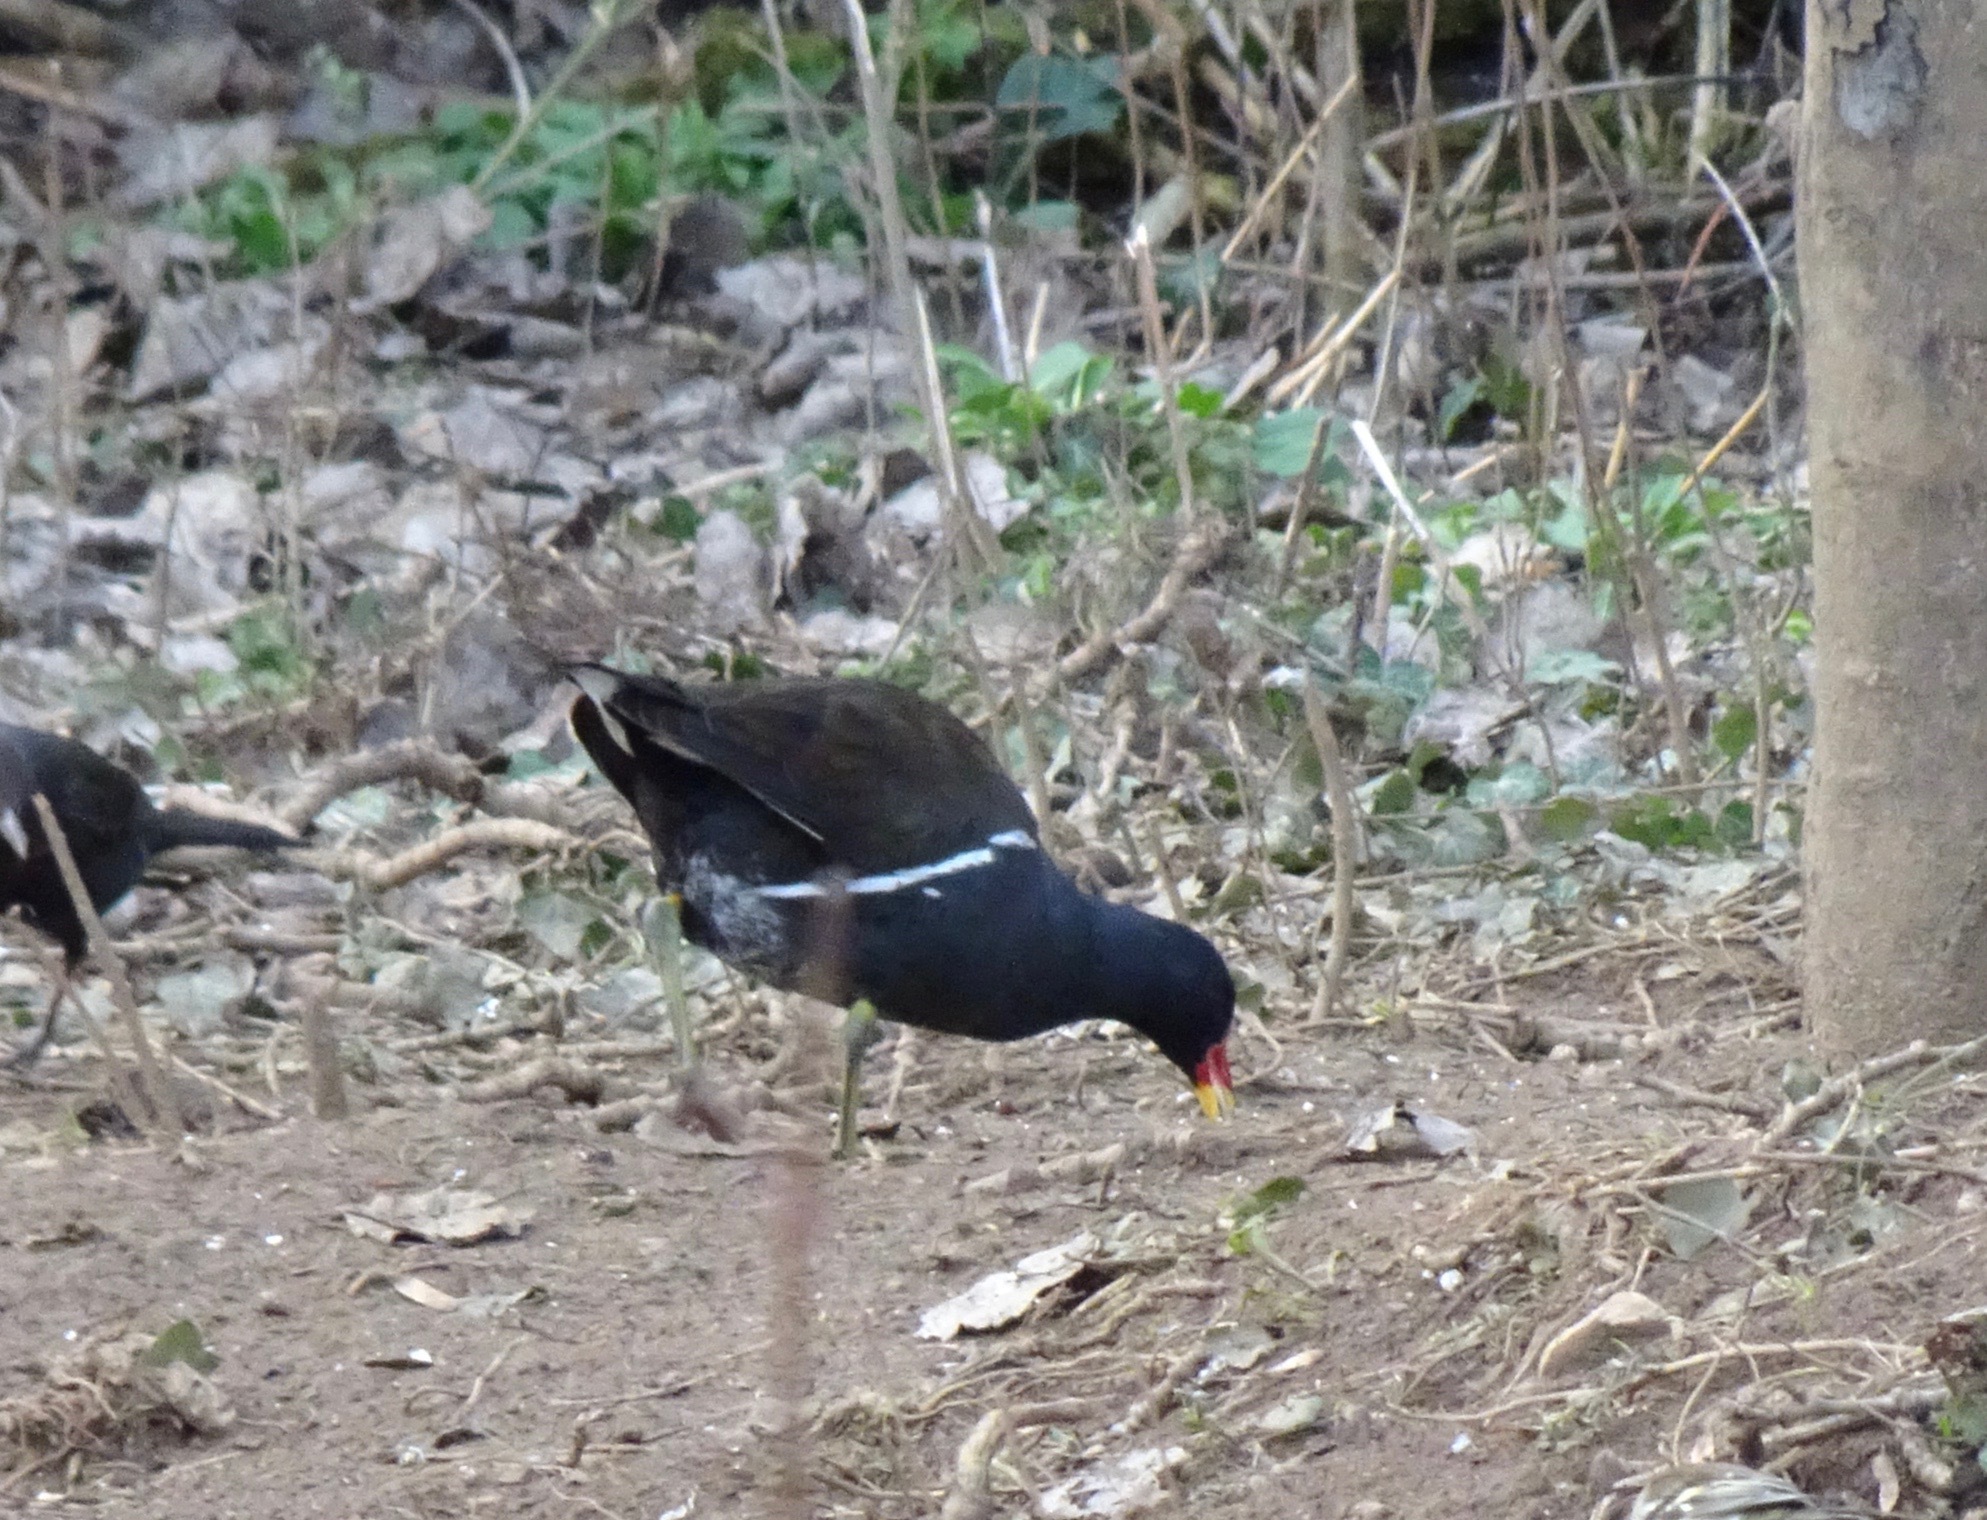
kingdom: Animalia
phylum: Chordata
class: Aves
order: Gruiformes
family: Rallidae
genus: Gallinula
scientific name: Gallinula chloropus
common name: Common moorhen
